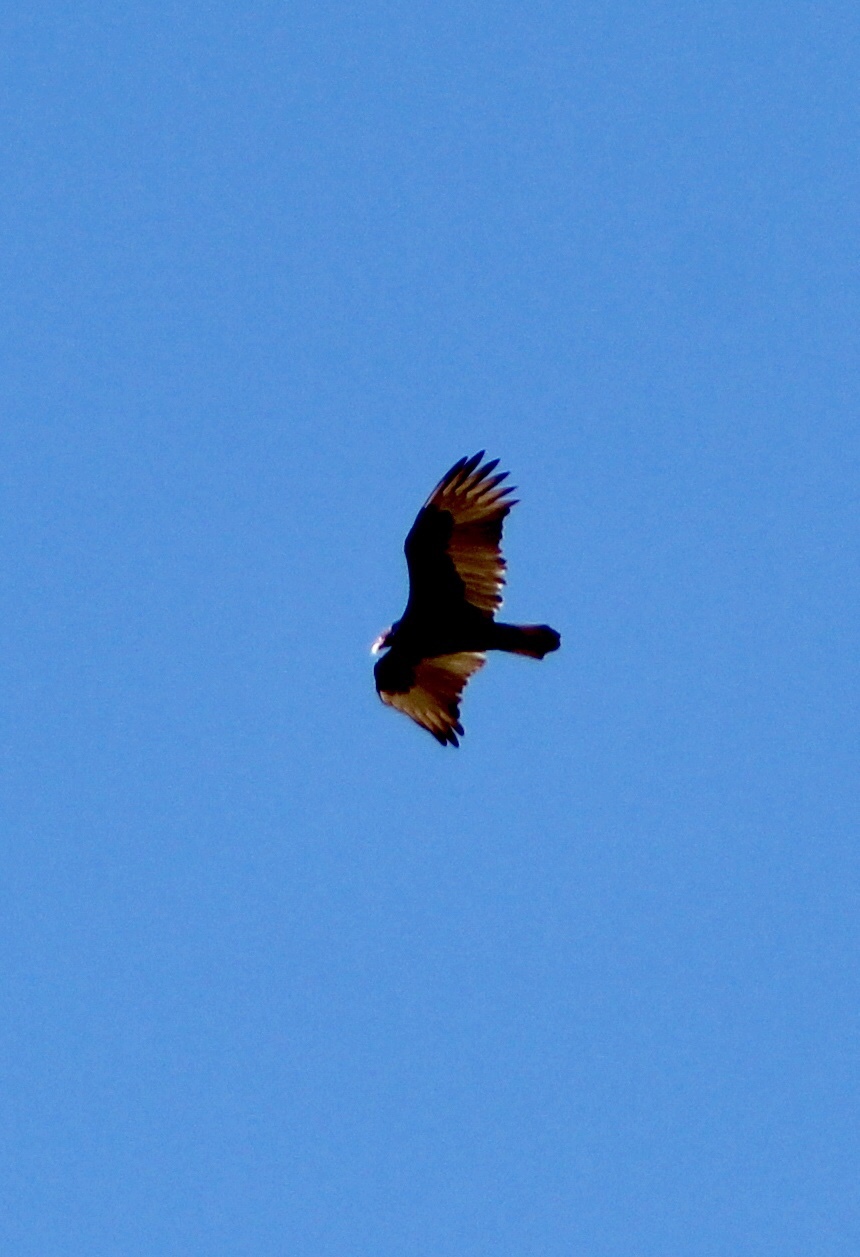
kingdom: Animalia
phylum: Chordata
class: Aves
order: Accipitriformes
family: Cathartidae
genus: Cathartes
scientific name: Cathartes aura
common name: Turkey vulture
